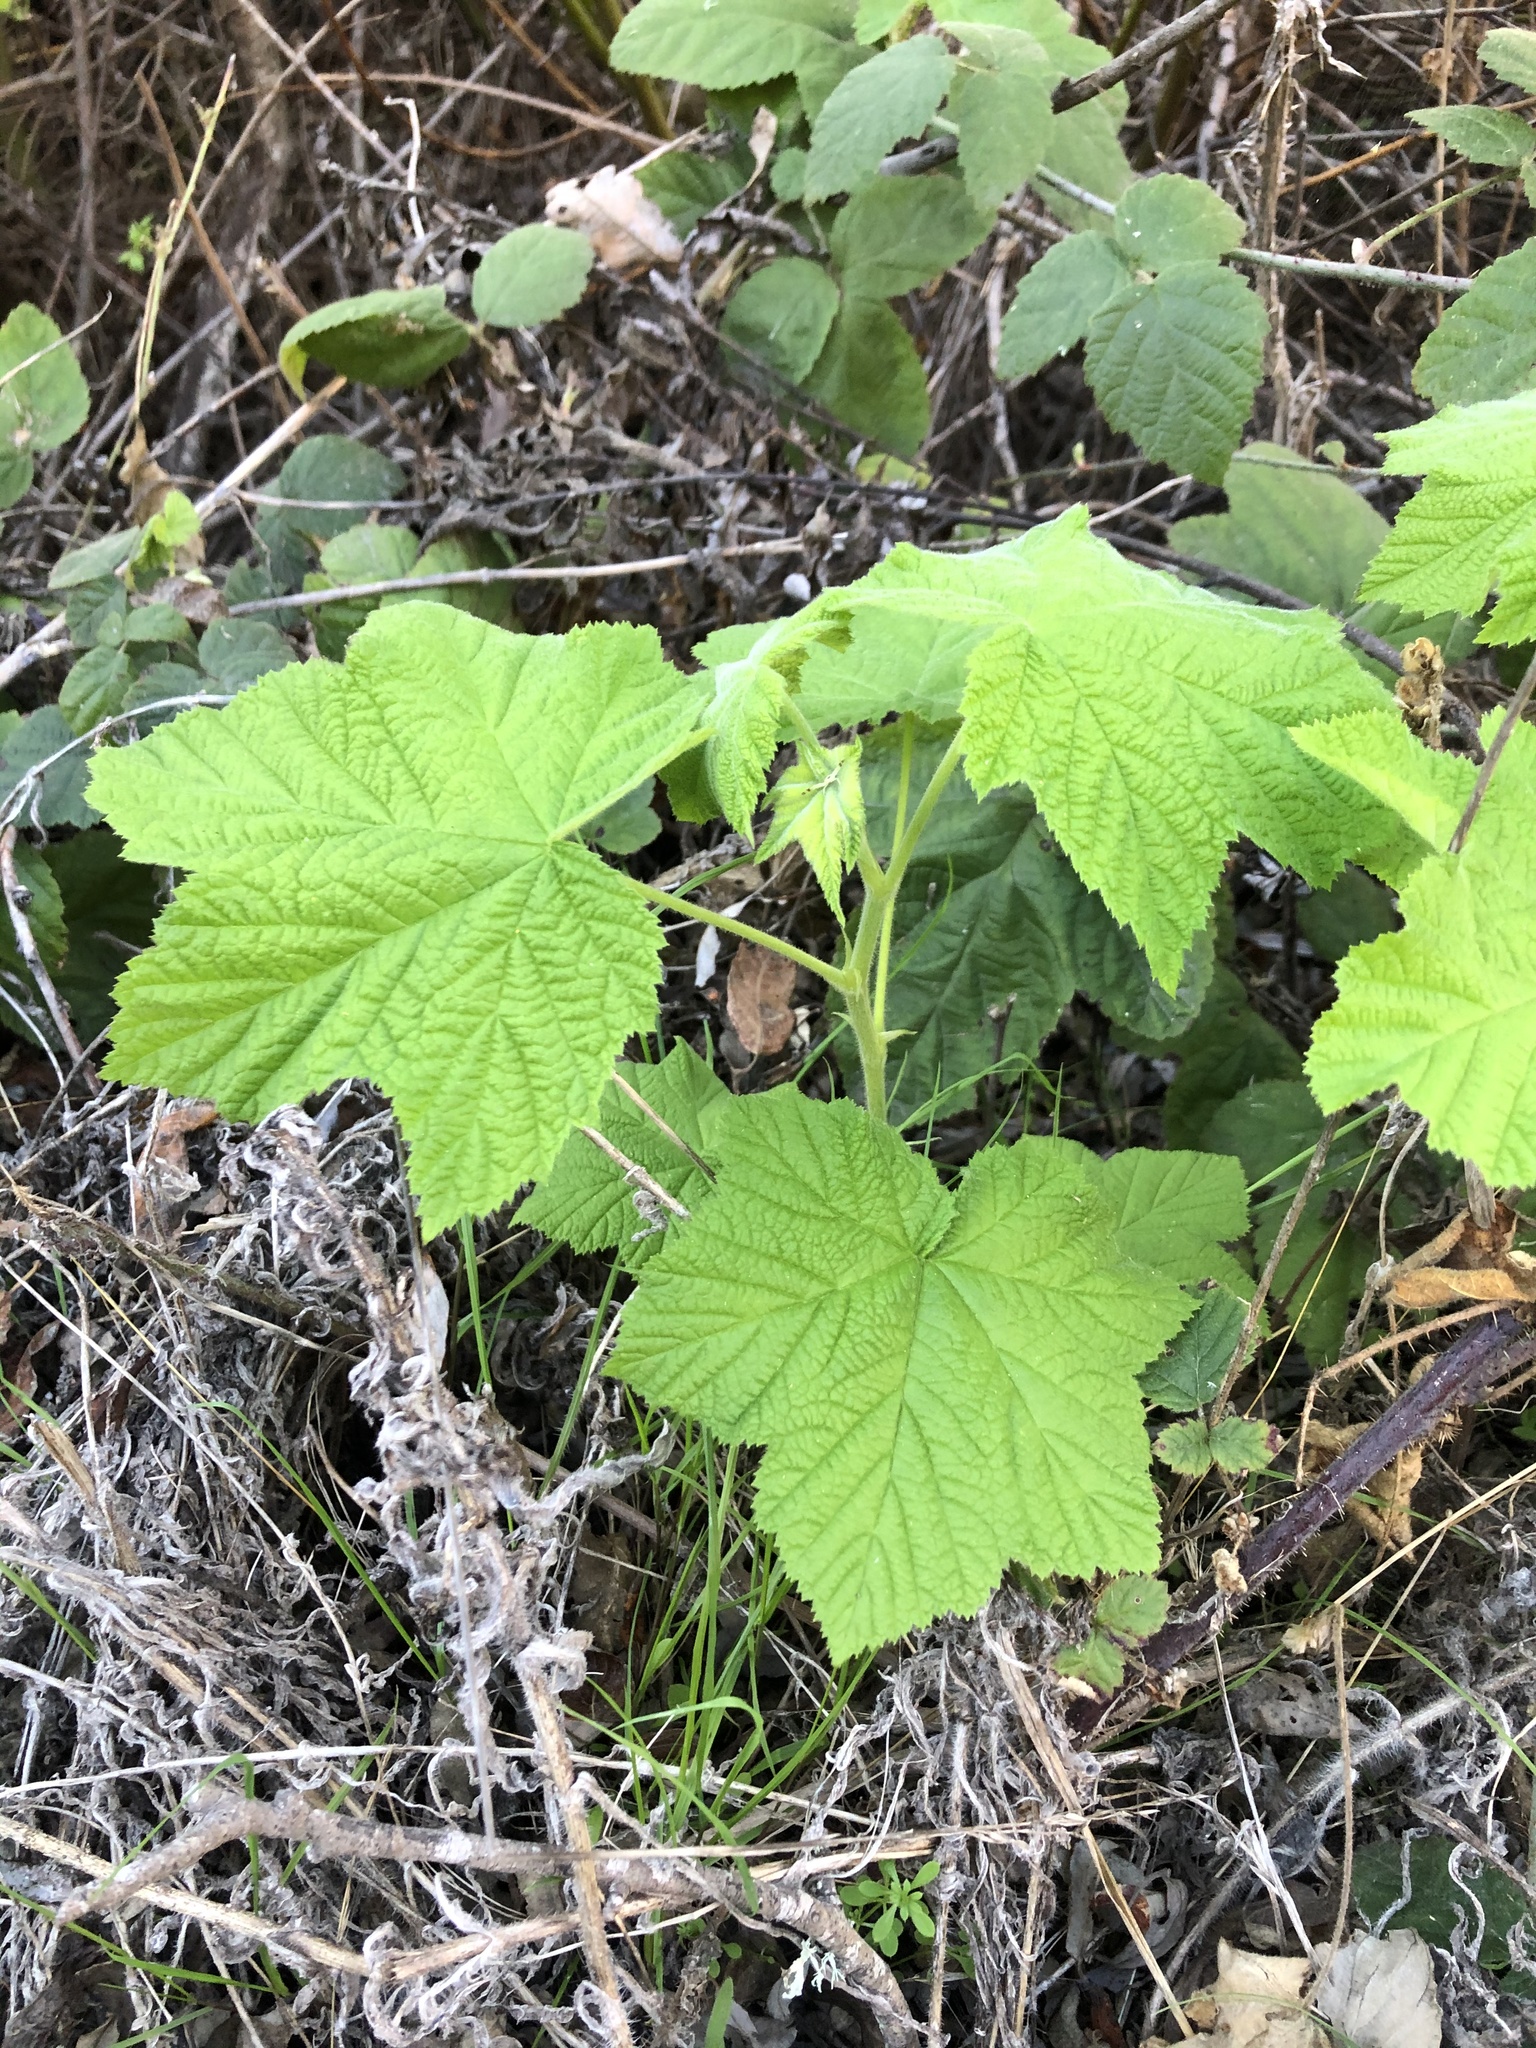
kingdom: Plantae
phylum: Tracheophyta
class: Magnoliopsida
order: Rosales
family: Rosaceae
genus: Rubus
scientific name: Rubus parviflorus
